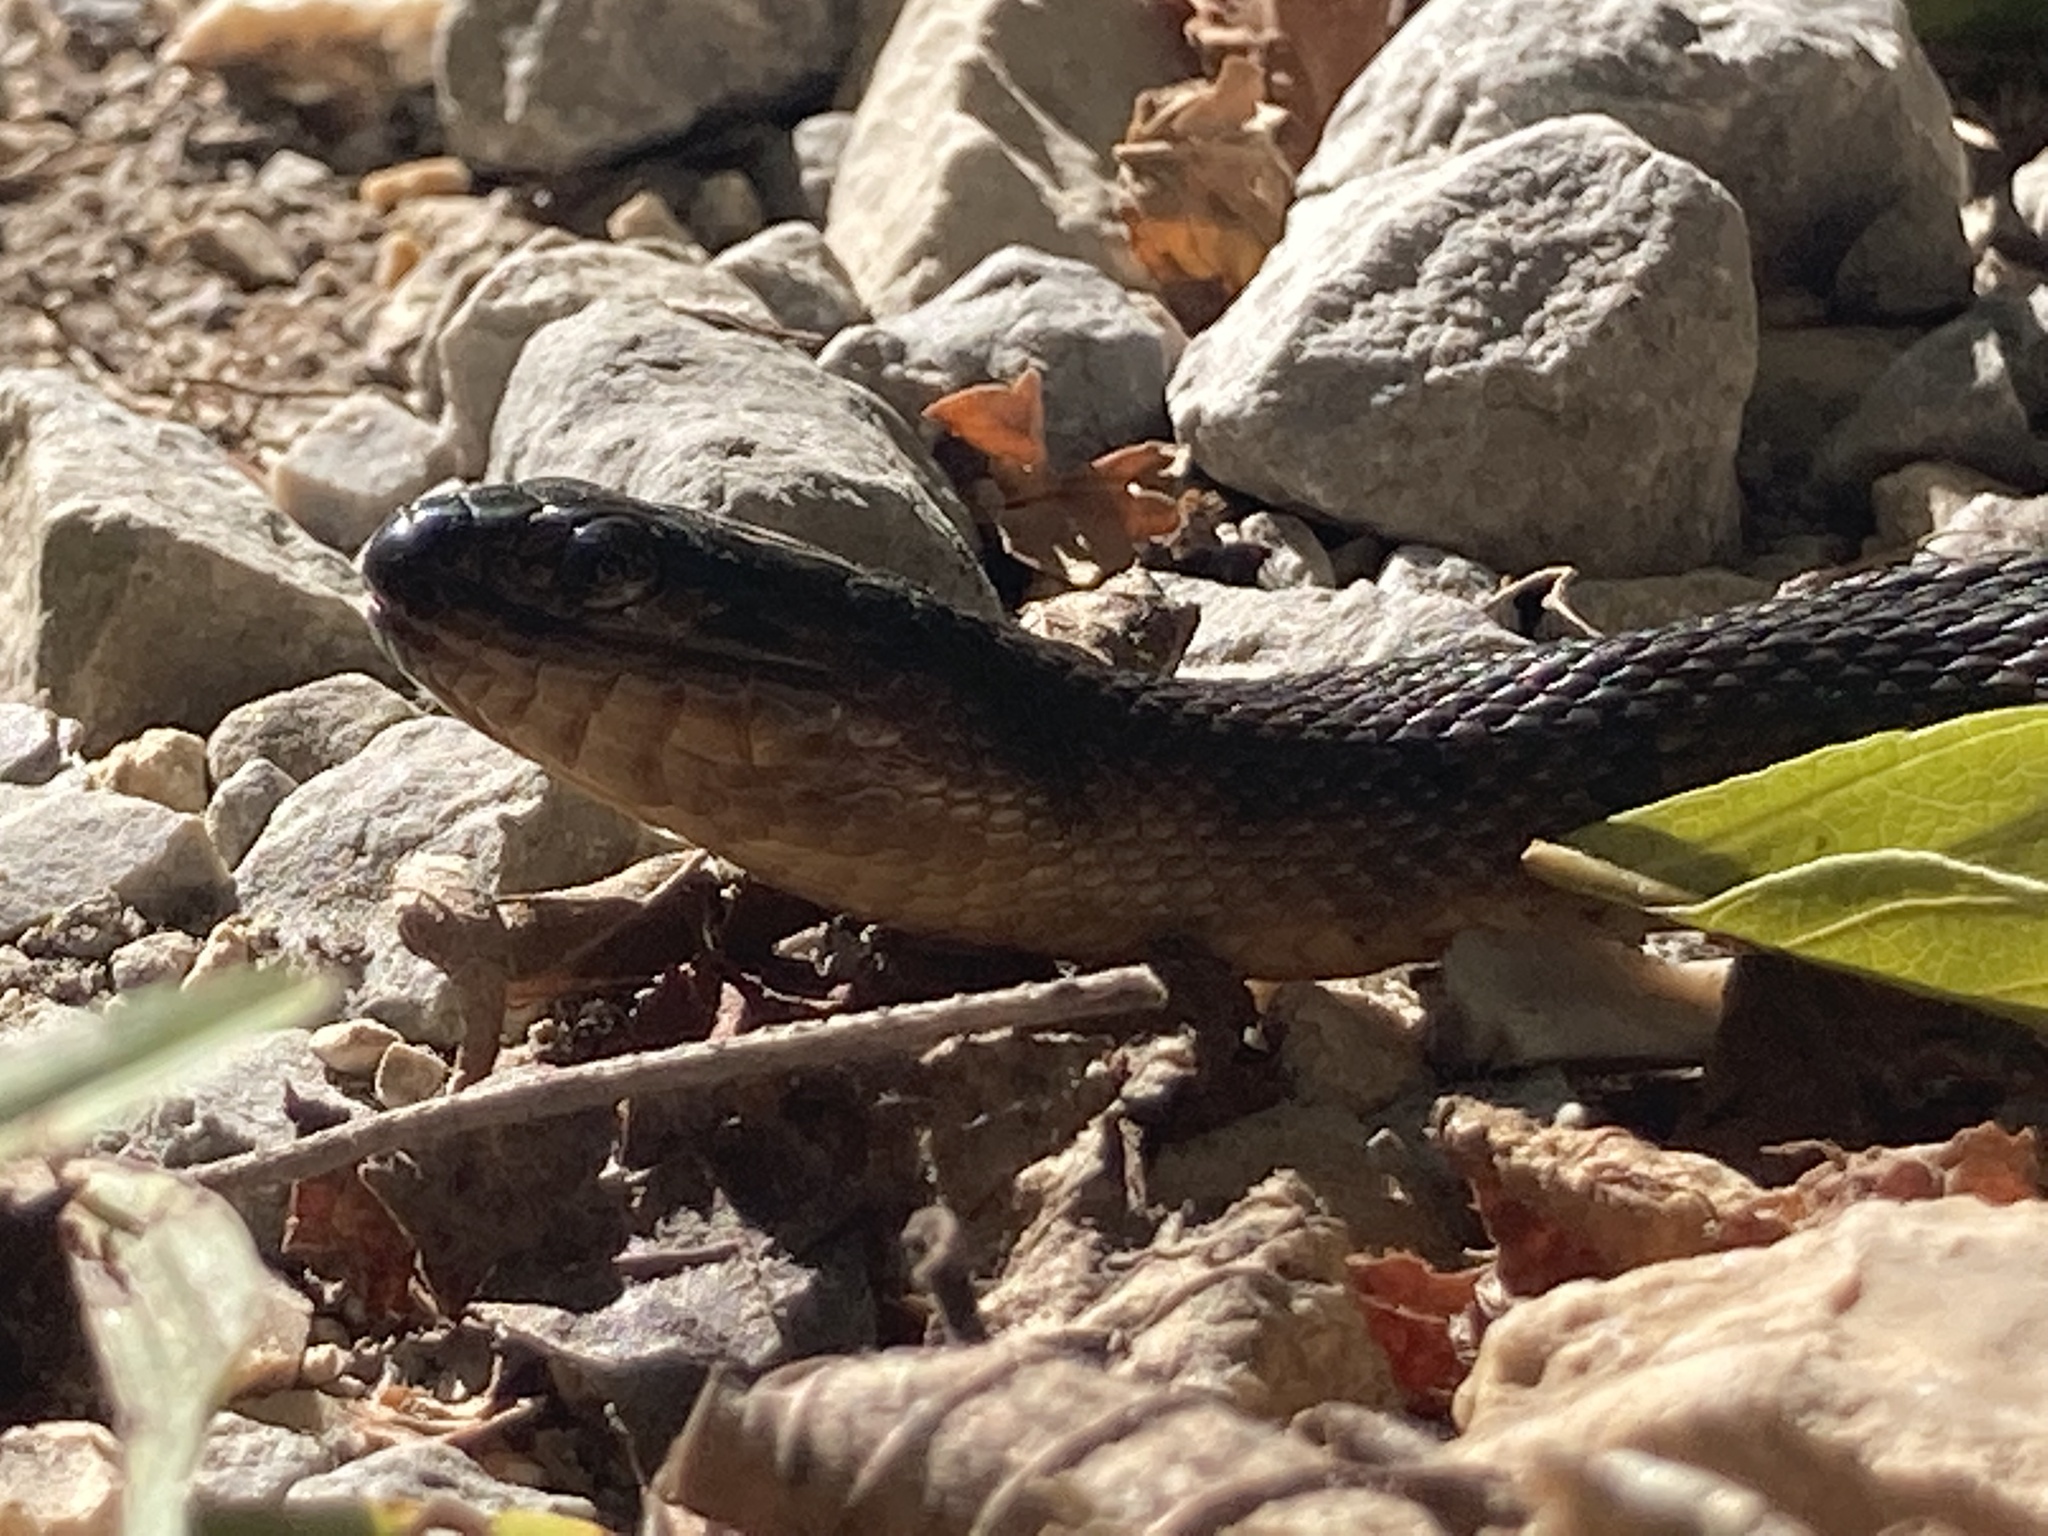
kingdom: Animalia
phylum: Chordata
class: Squamata
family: Colubridae
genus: Nerodia
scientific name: Nerodia cyclopion
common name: Mississippi green water snake
